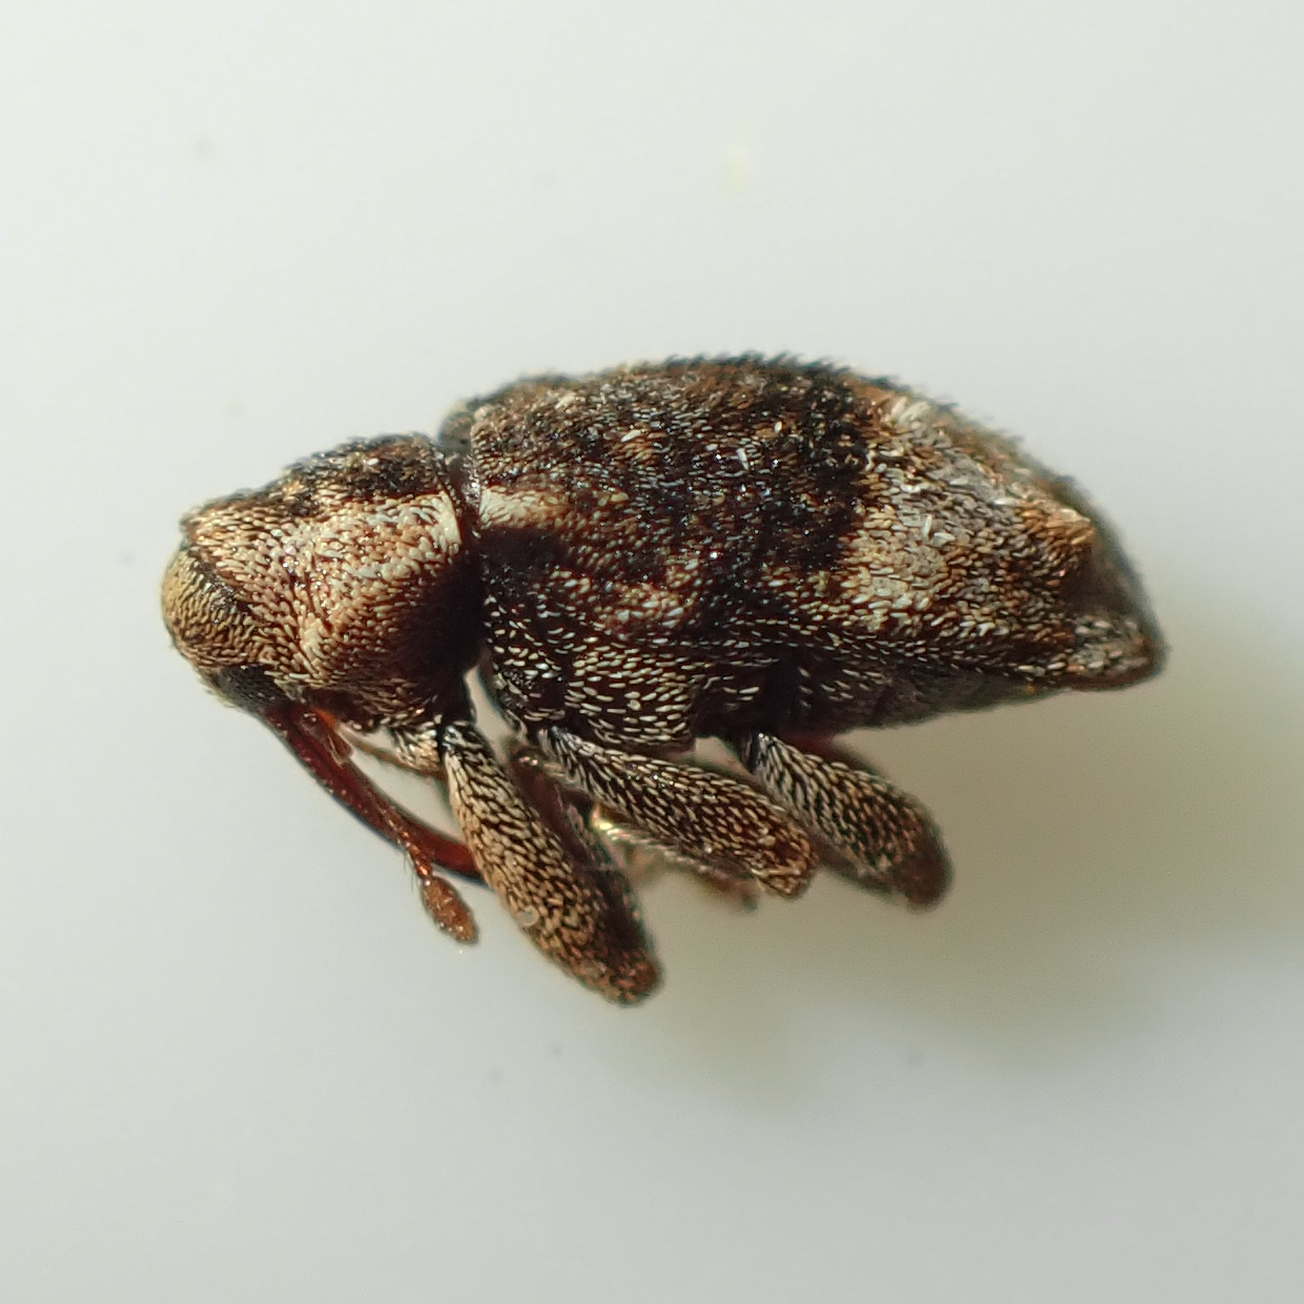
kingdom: Animalia
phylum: Arthropoda
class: Insecta
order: Coleoptera
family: Curculionidae
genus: Emplesis
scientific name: Emplesis bifoveata
